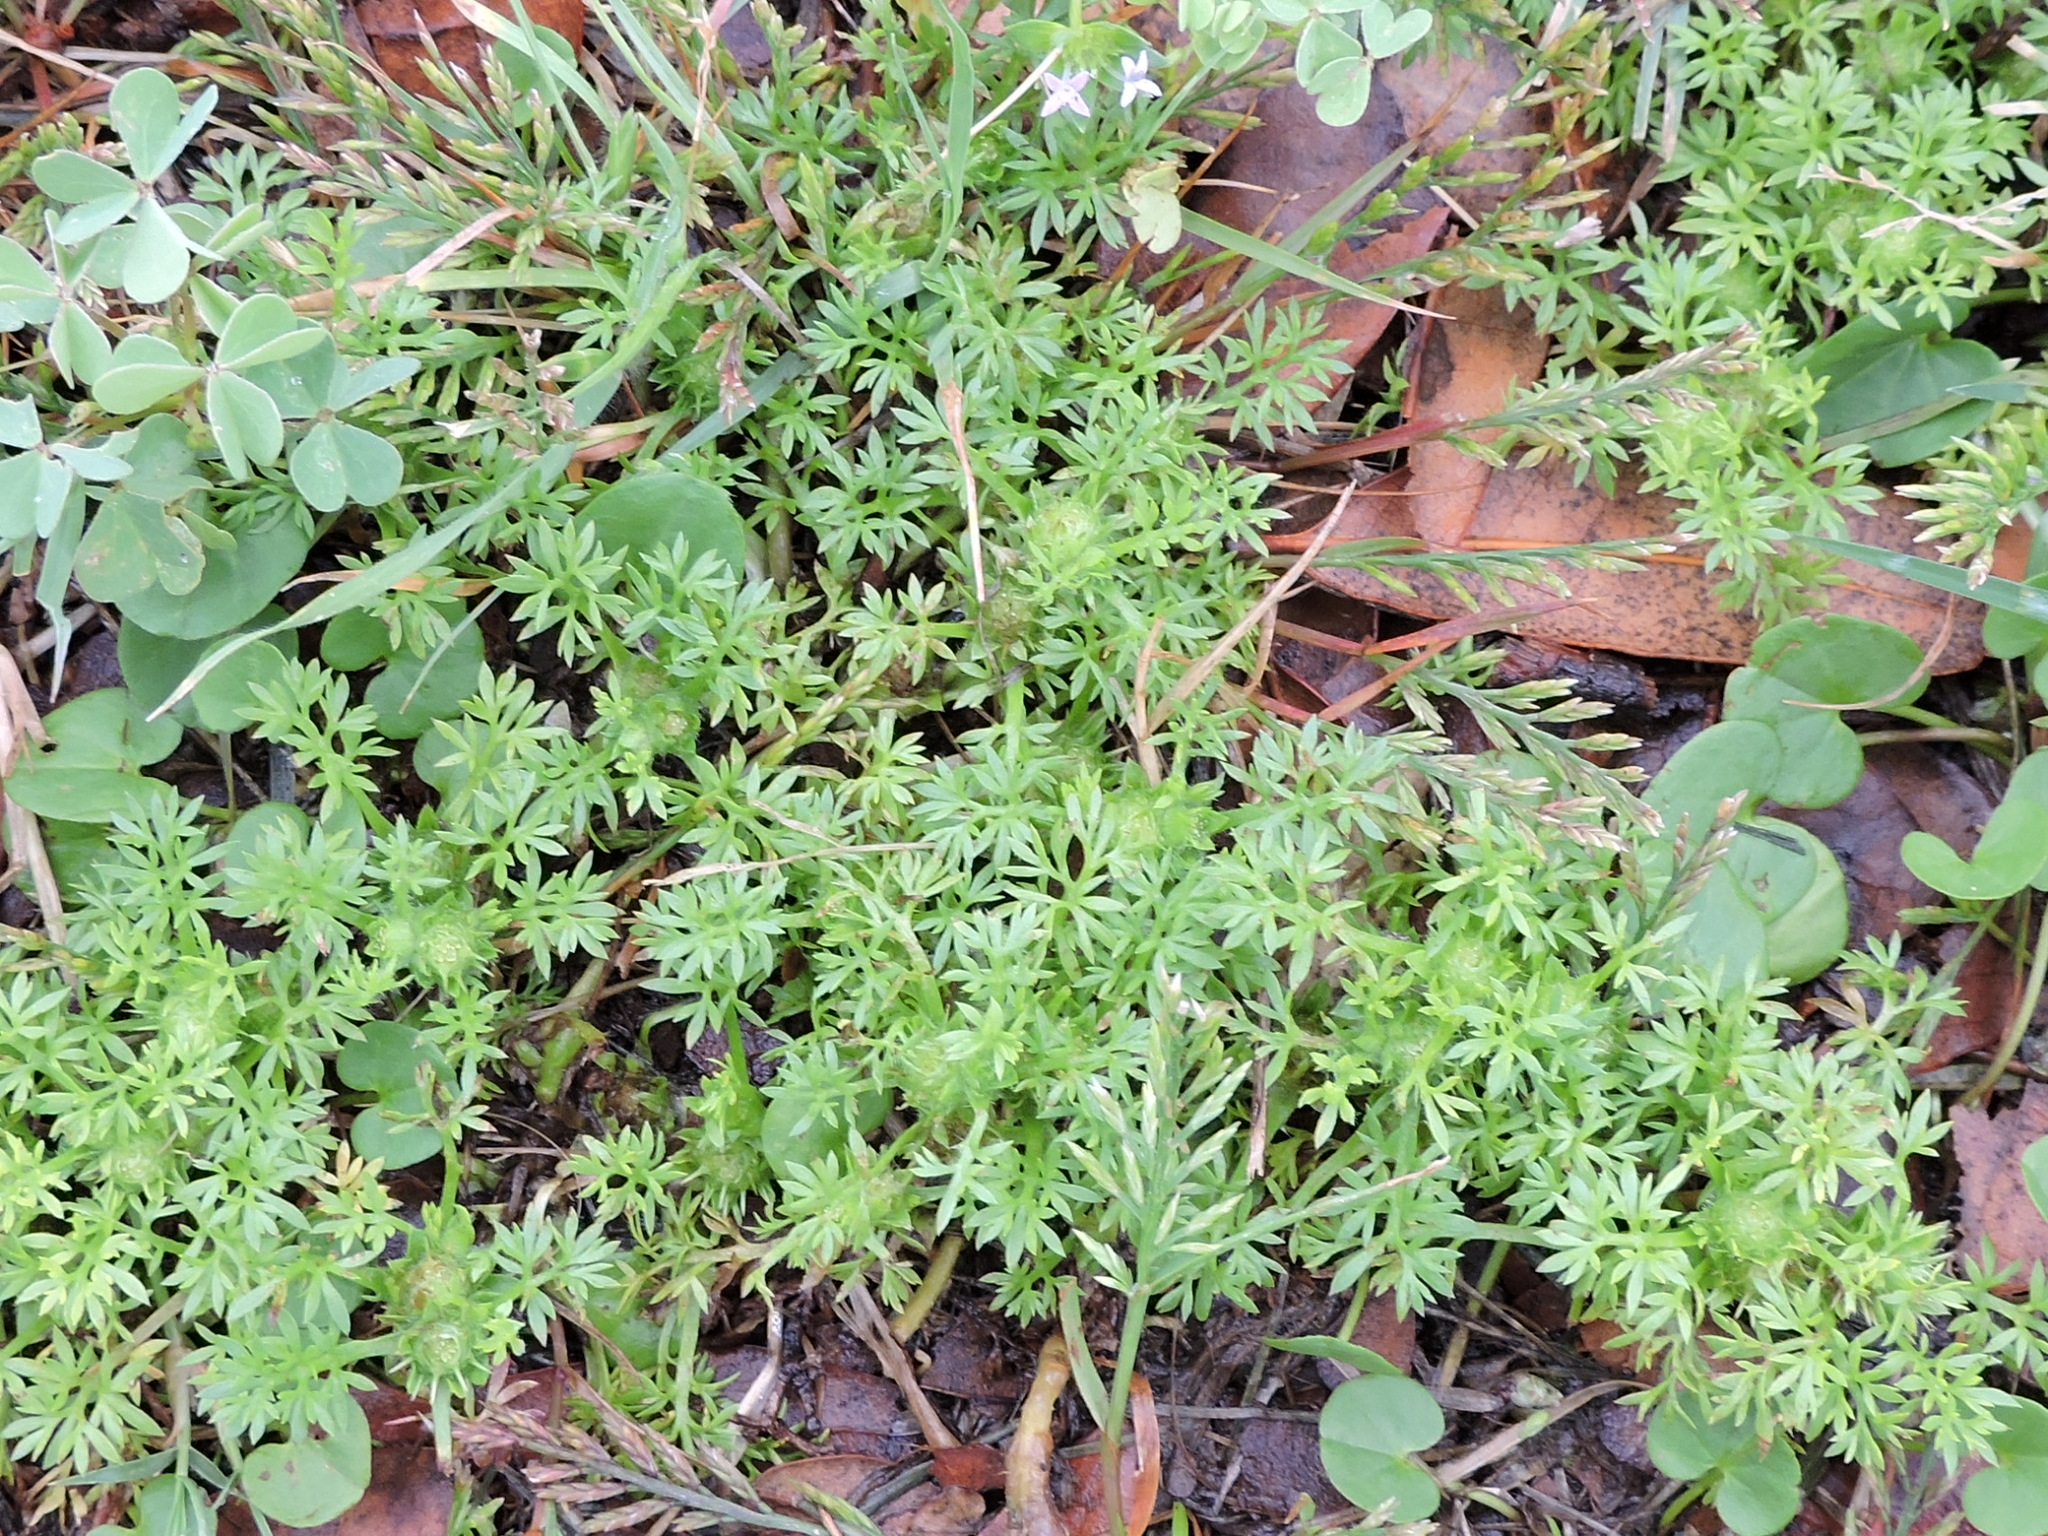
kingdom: Plantae
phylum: Tracheophyta
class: Magnoliopsida
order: Asterales
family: Asteraceae
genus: Soliva
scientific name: Soliva sessilis
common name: Field burrweed
